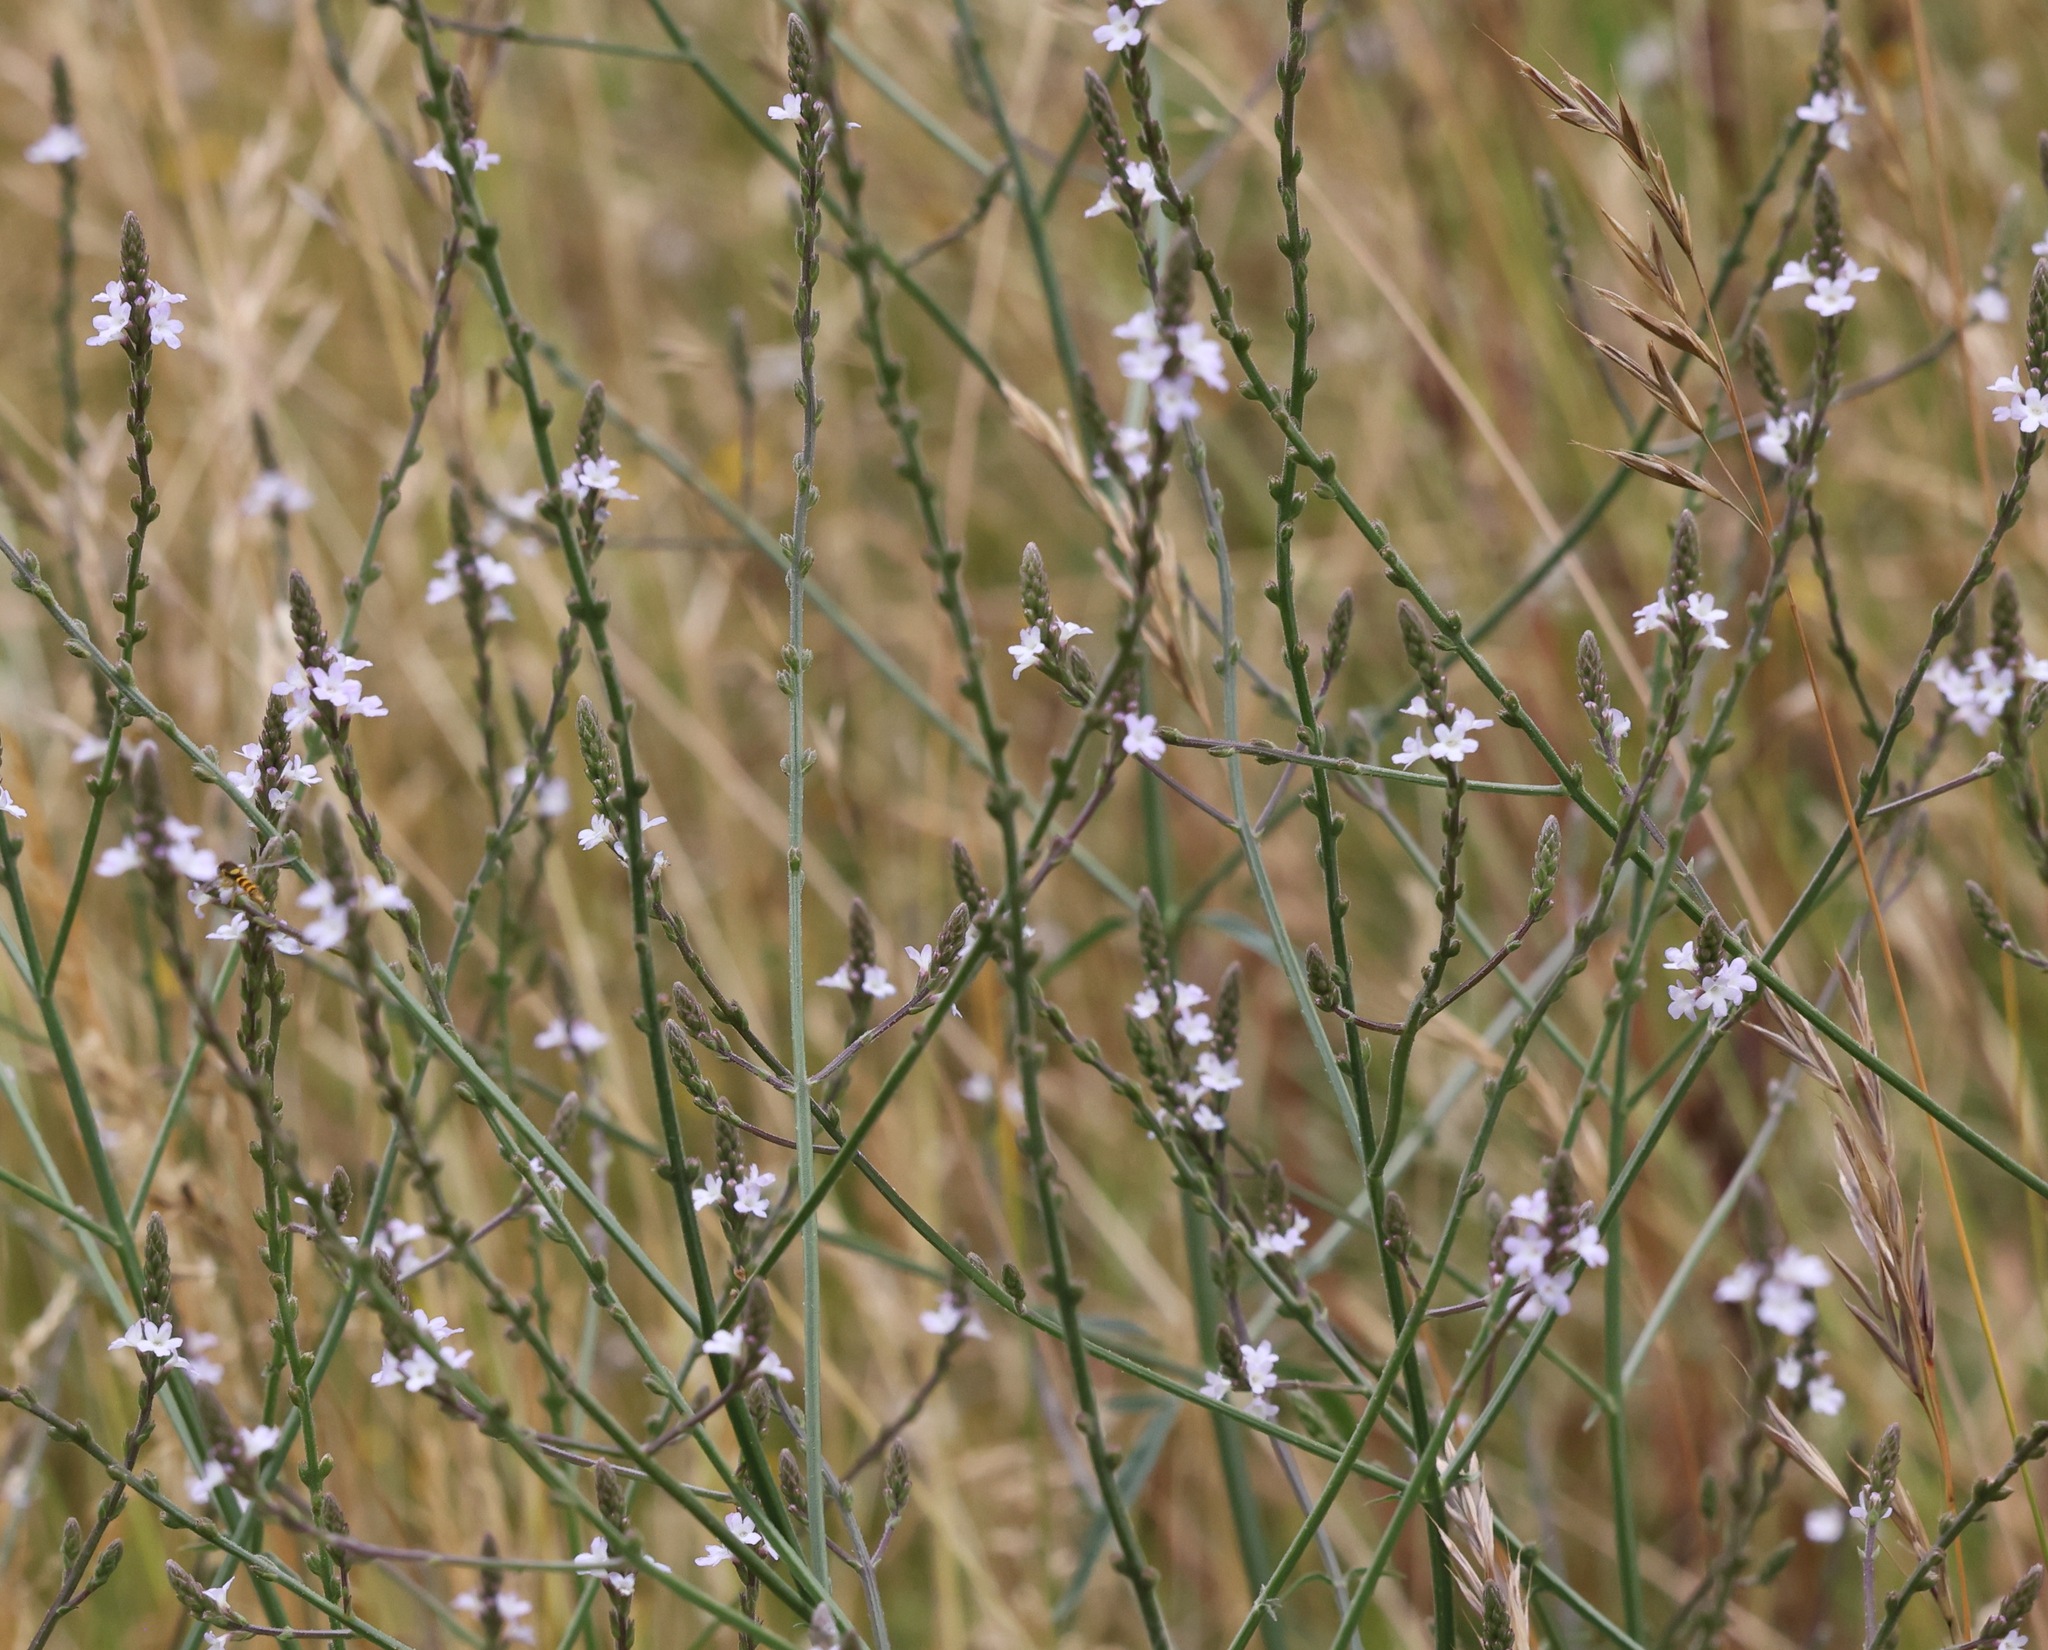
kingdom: Plantae
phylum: Tracheophyta
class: Magnoliopsida
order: Lamiales
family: Verbenaceae
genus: Verbena
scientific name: Verbena officinalis
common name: Vervain
